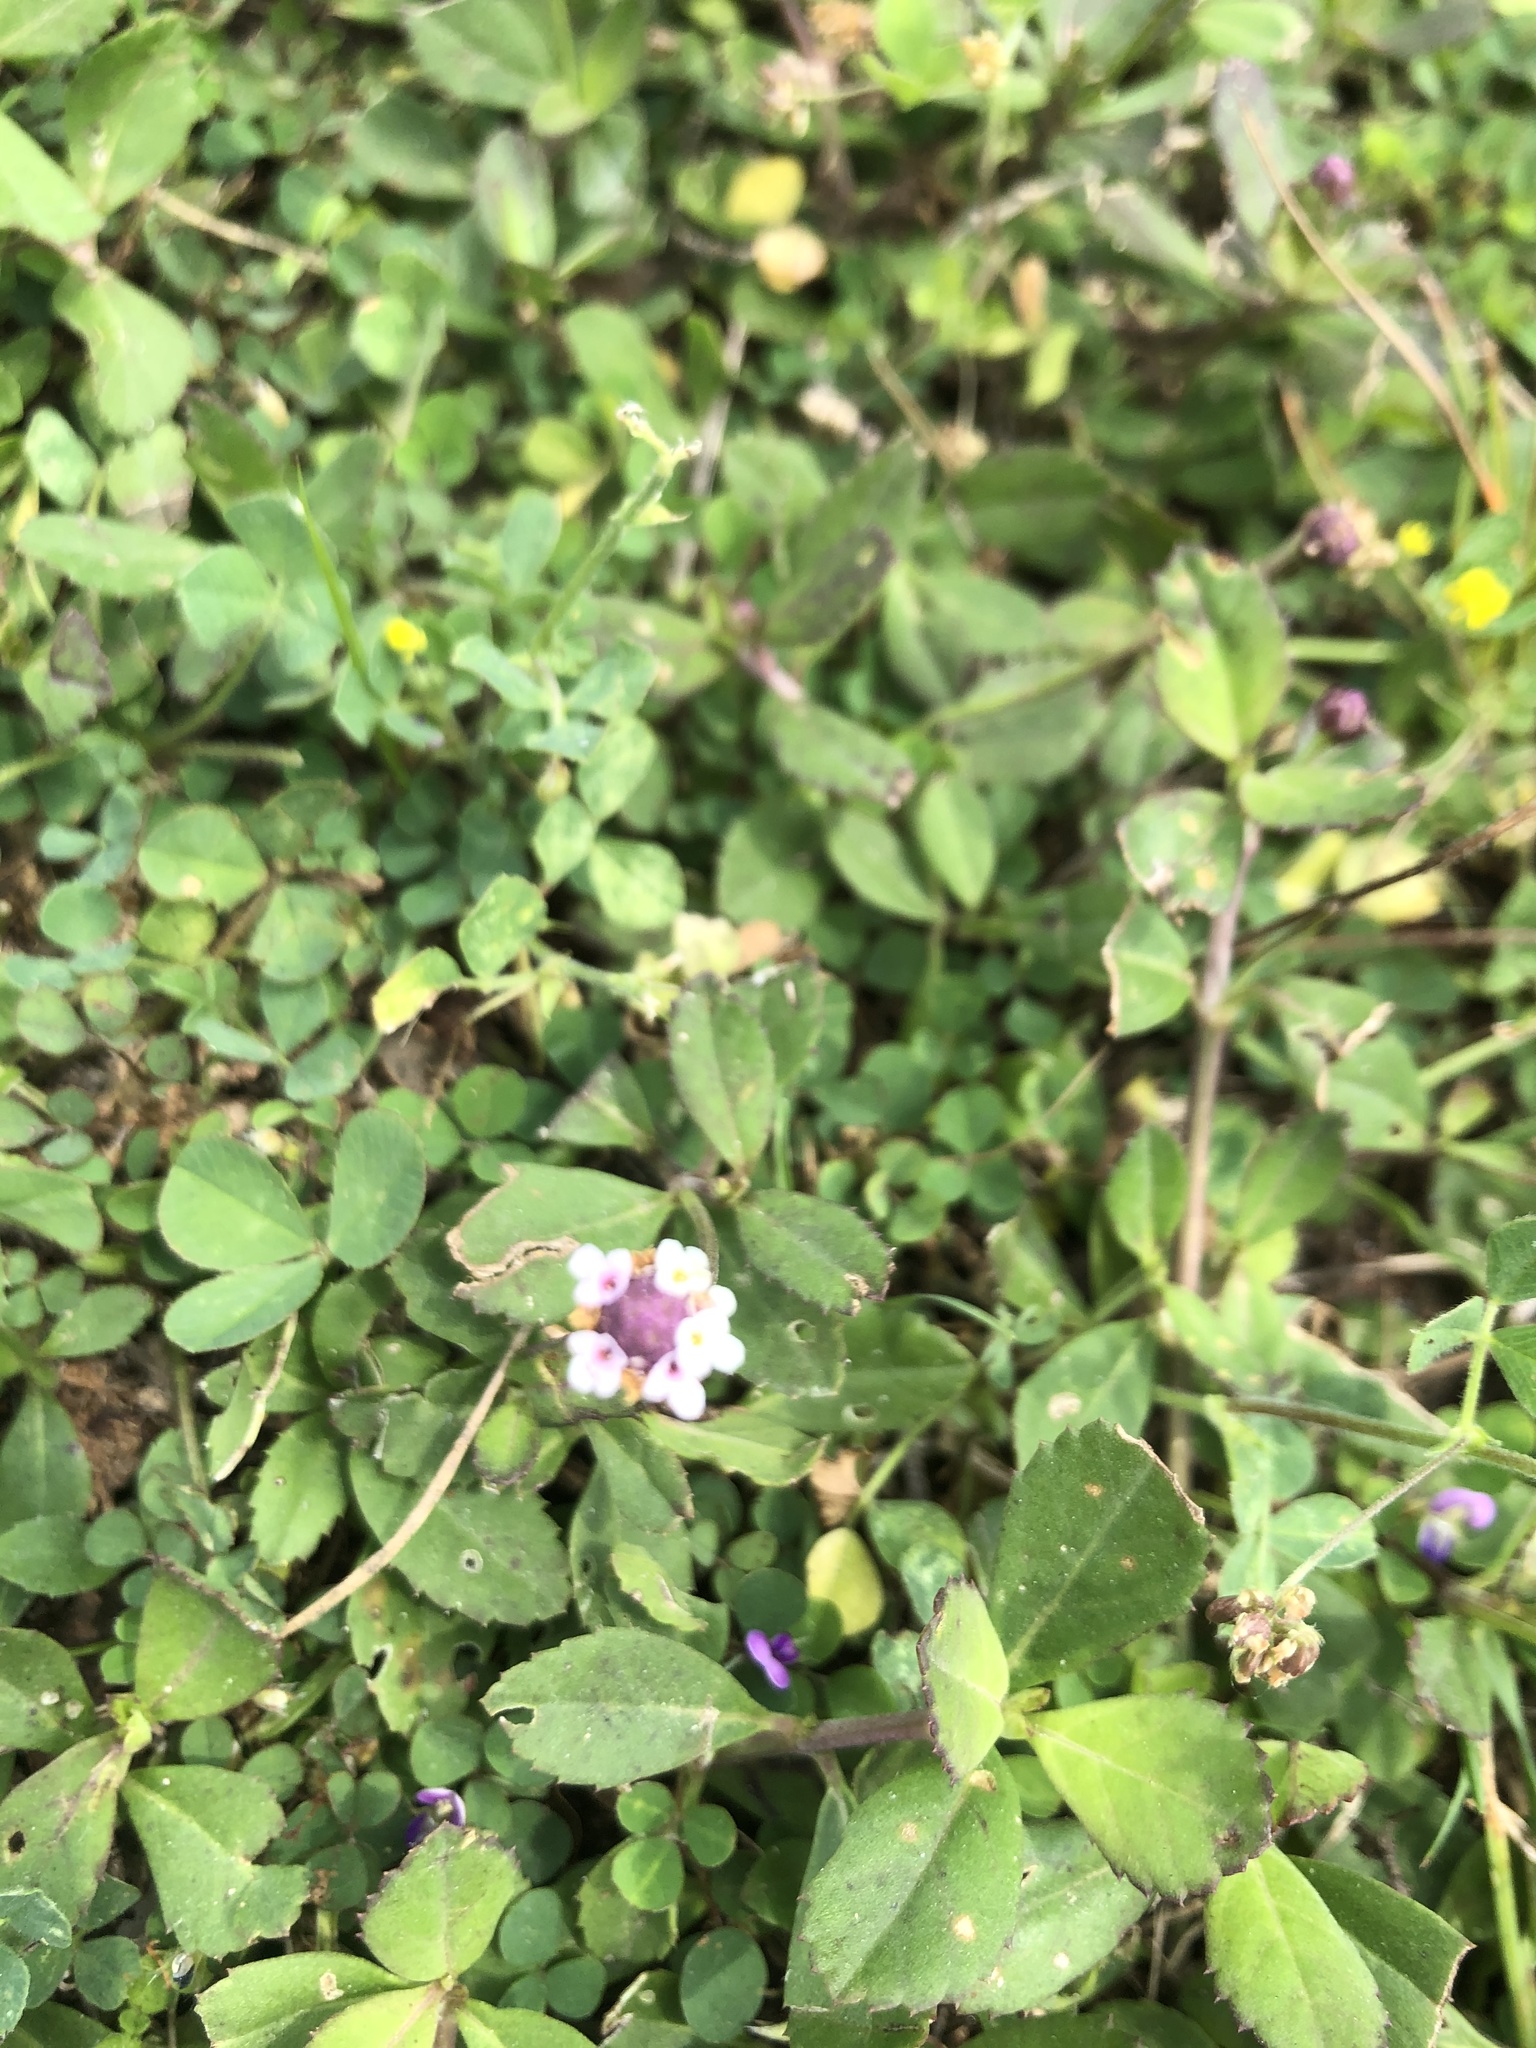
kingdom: Plantae
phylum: Tracheophyta
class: Magnoliopsida
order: Lamiales
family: Verbenaceae
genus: Phyla
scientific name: Phyla nodiflora
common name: Frogfruit
